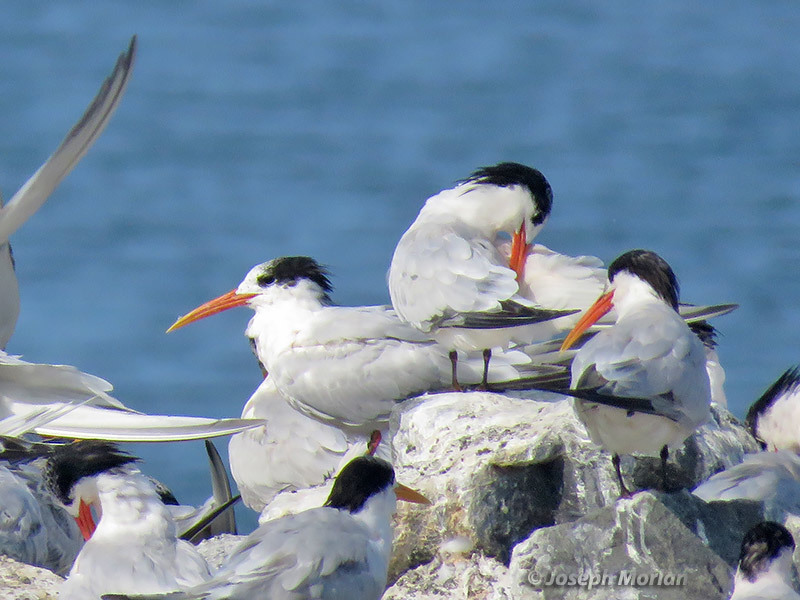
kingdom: Animalia
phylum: Chordata
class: Aves
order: Charadriiformes
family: Laridae
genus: Thalasseus
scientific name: Thalasseus elegans
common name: Elegant tern
